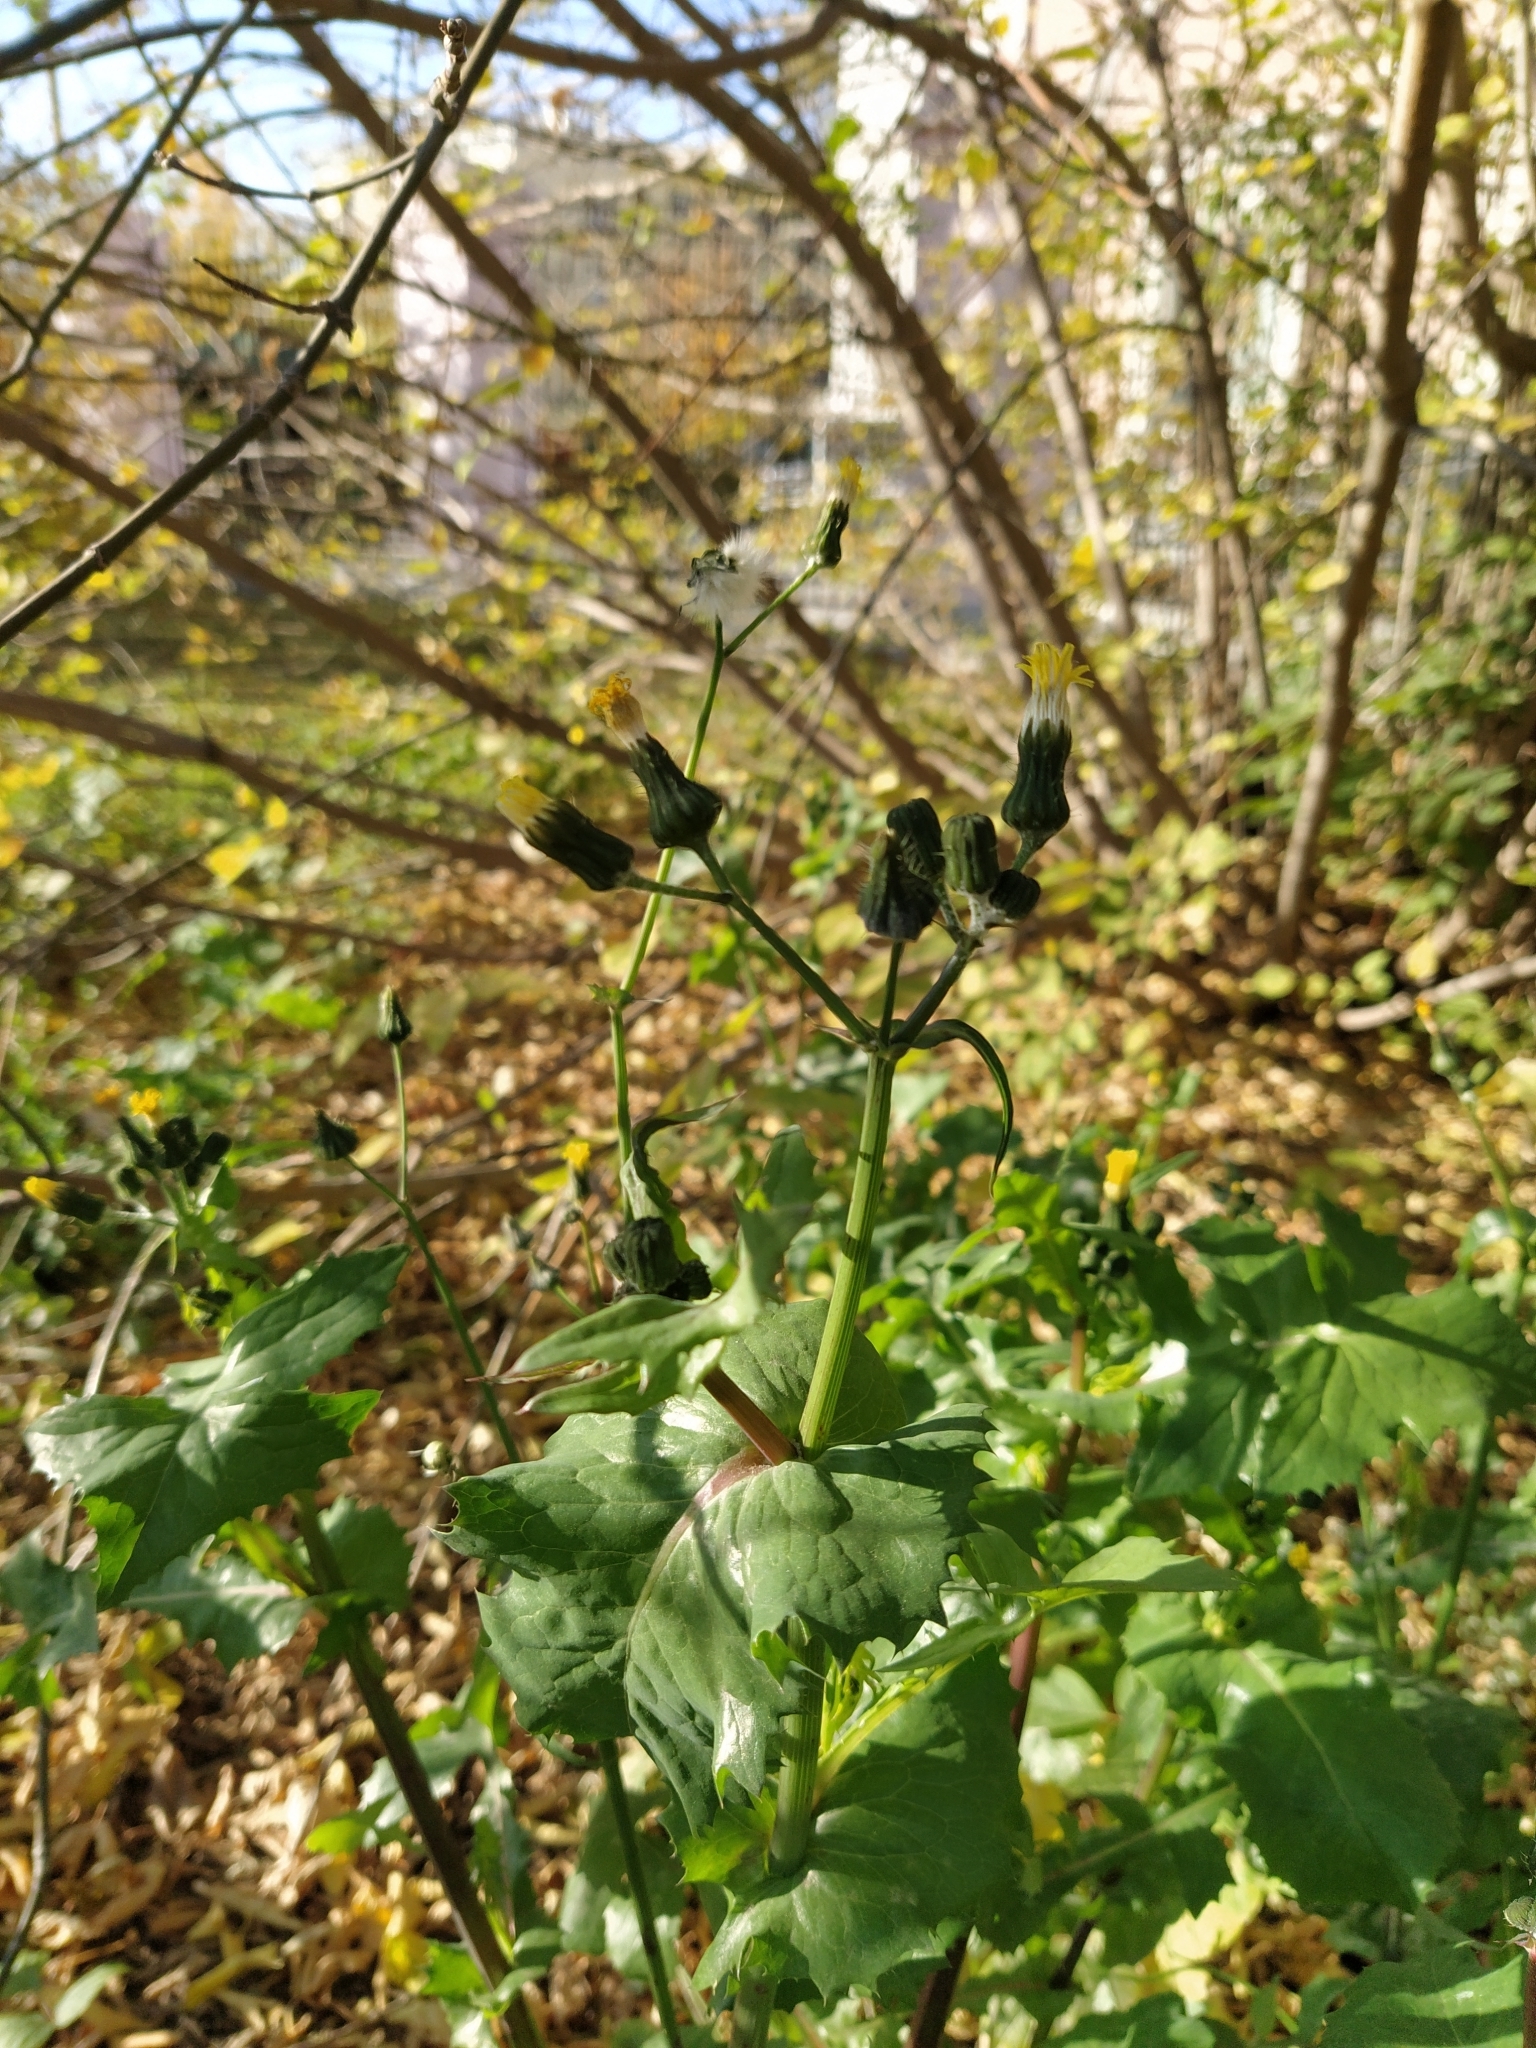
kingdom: Plantae
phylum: Tracheophyta
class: Magnoliopsida
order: Asterales
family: Asteraceae
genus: Sonchus
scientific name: Sonchus oleraceus
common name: Common sowthistle
